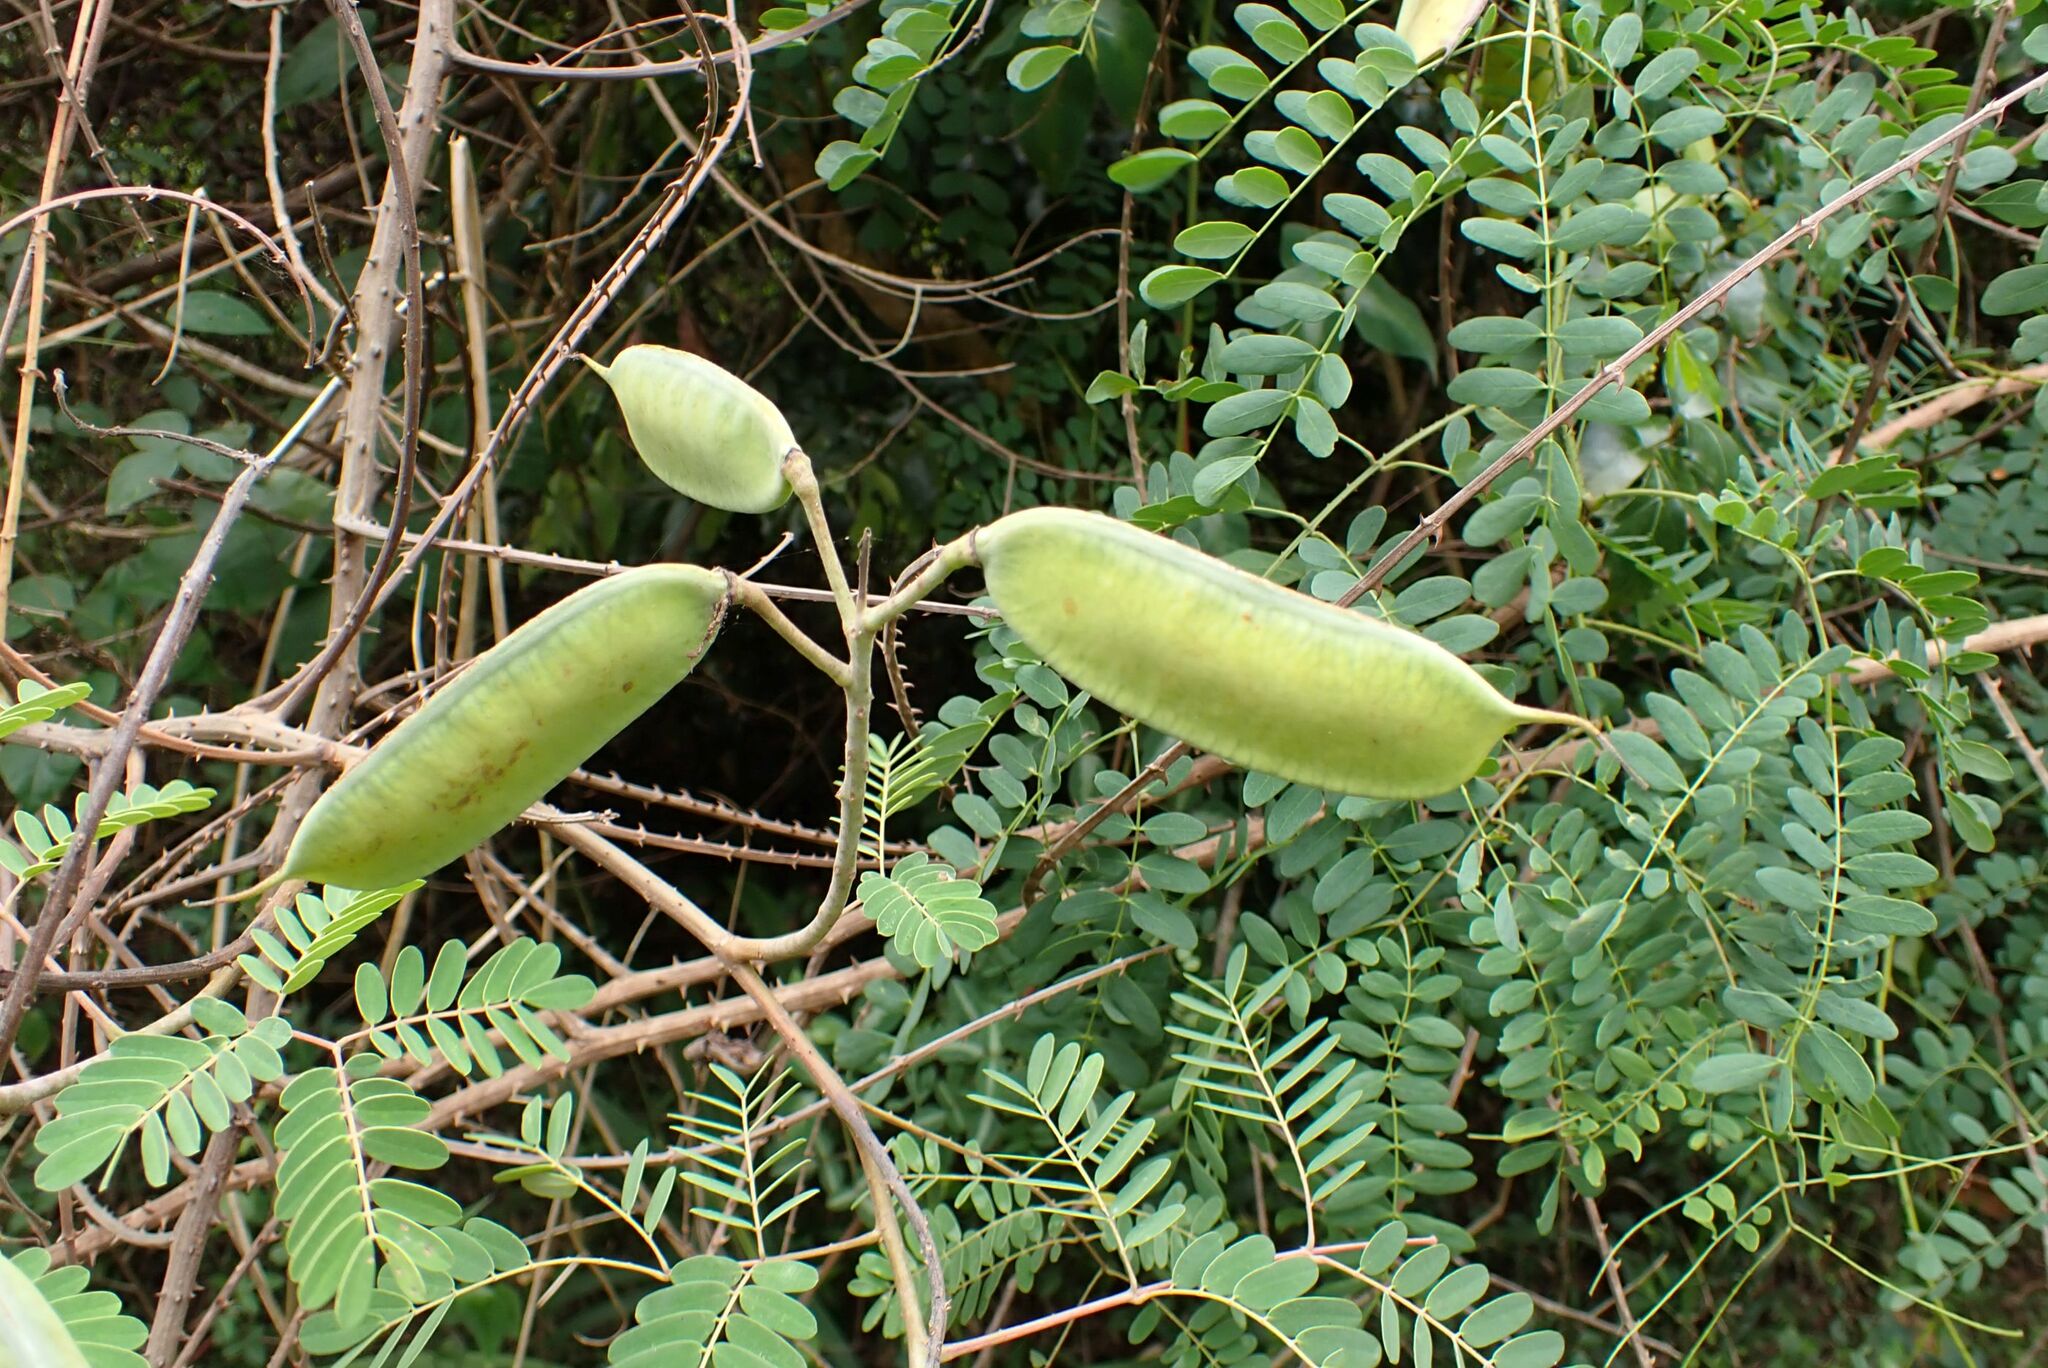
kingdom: Plantae
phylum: Tracheophyta
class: Magnoliopsida
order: Fabales
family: Fabaceae
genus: Biancaea
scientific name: Biancaea decapetala
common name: Cat's claw
